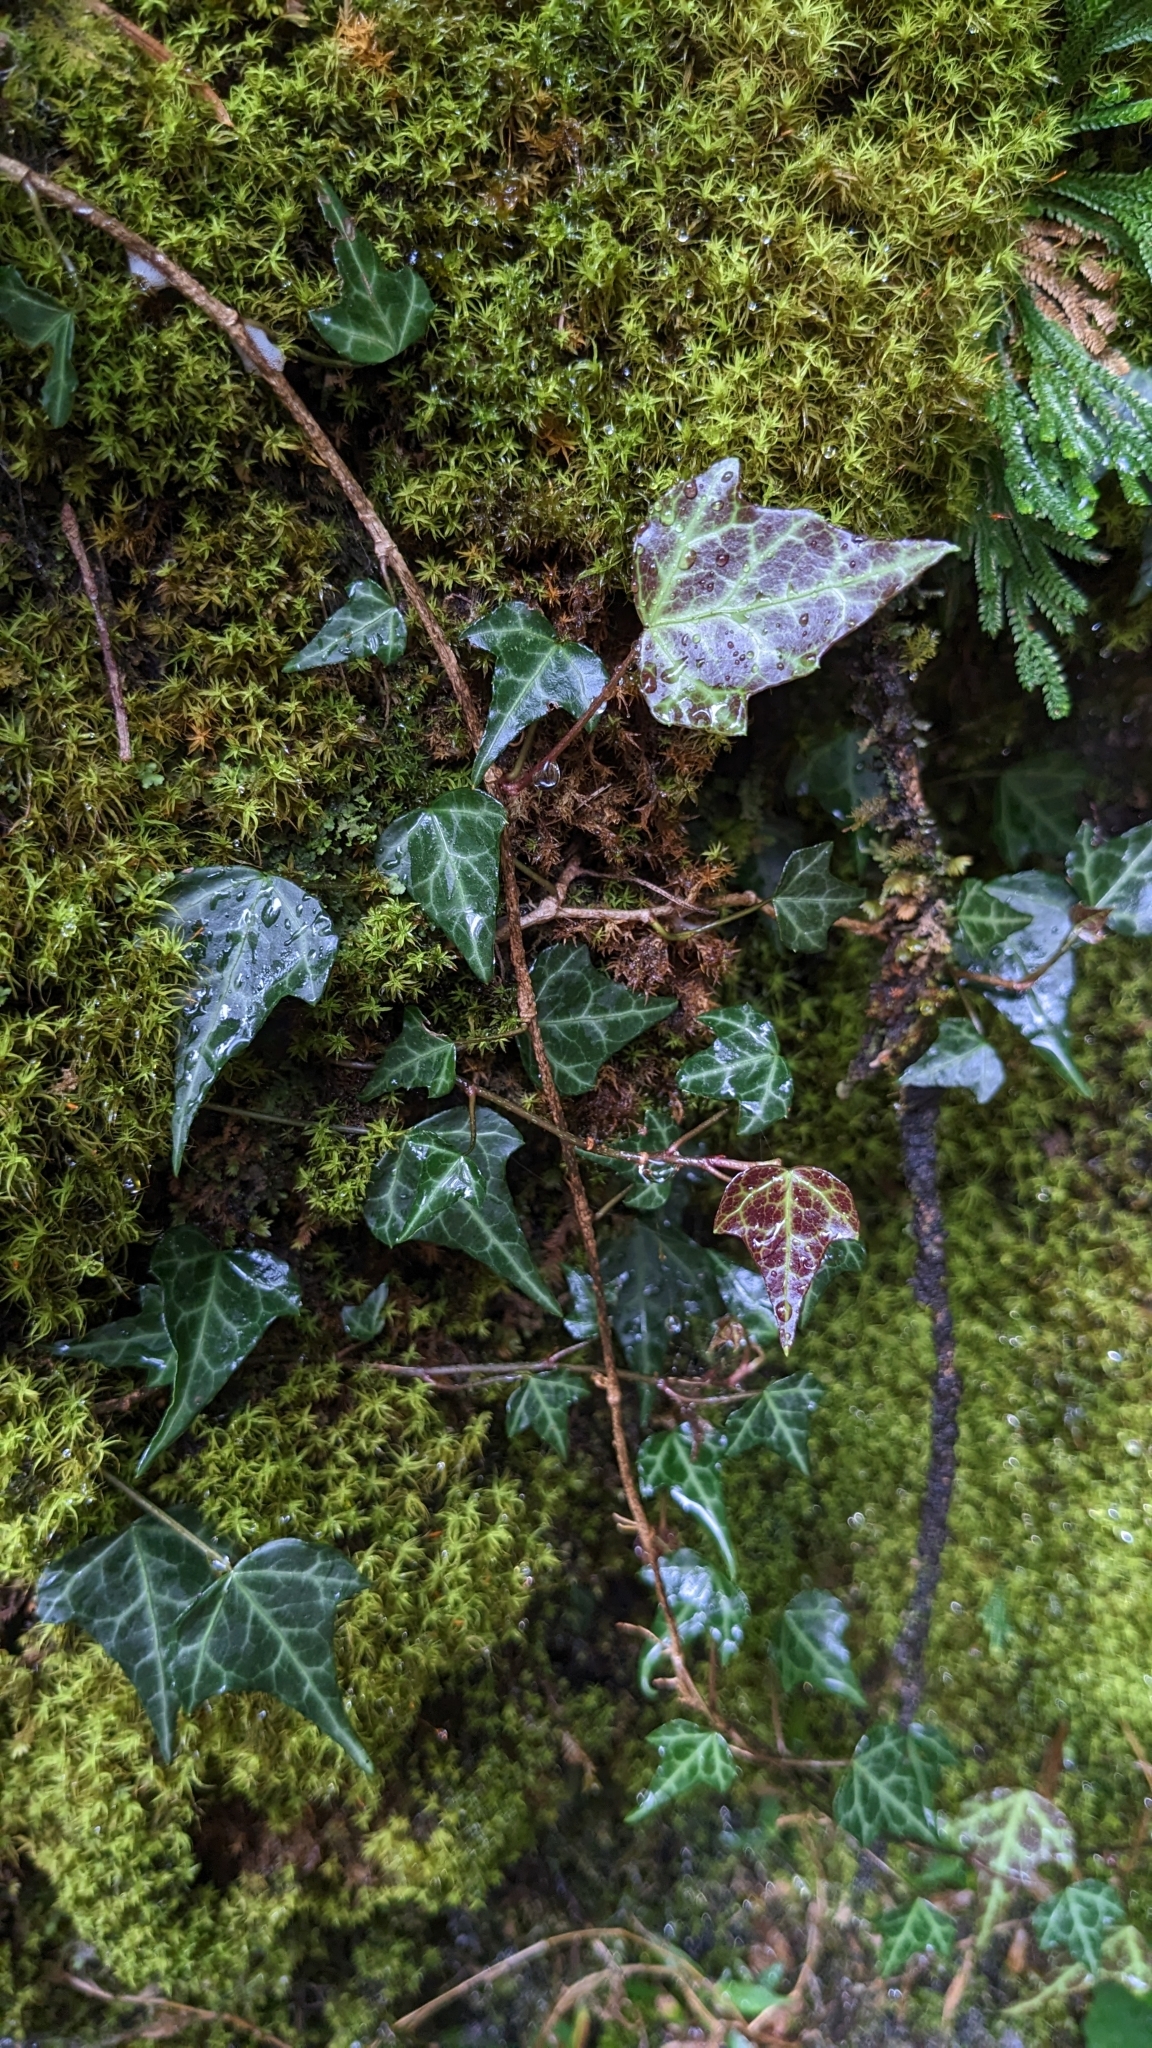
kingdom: Plantae
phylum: Tracheophyta
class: Magnoliopsida
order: Apiales
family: Araliaceae
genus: Hedera
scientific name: Hedera rhombea
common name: Japanese ivy
